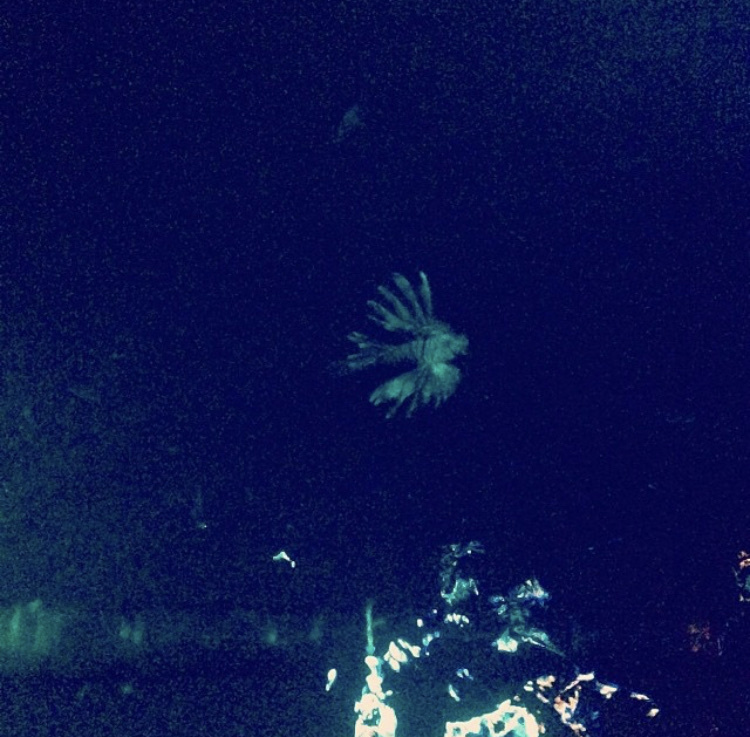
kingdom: Animalia
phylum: Chordata
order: Scorpaeniformes
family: Scorpaenidae
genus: Pterois
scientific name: Pterois volitans
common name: Lionfish
